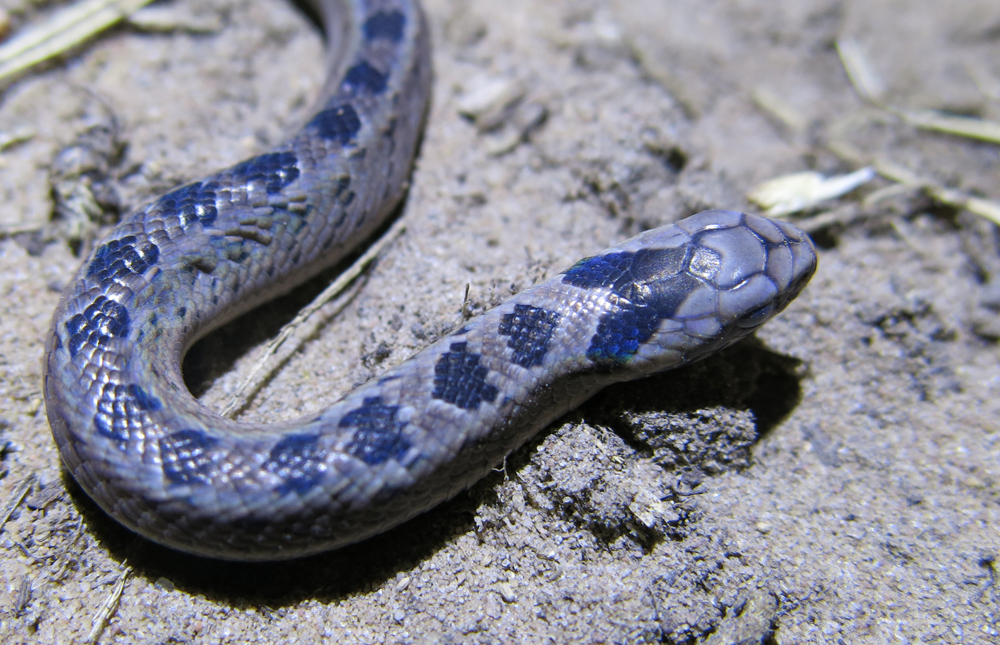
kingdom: Animalia
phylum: Chordata
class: Squamata
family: Viperidae
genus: Causus
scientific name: Causus rhombeatus
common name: Common night adder
